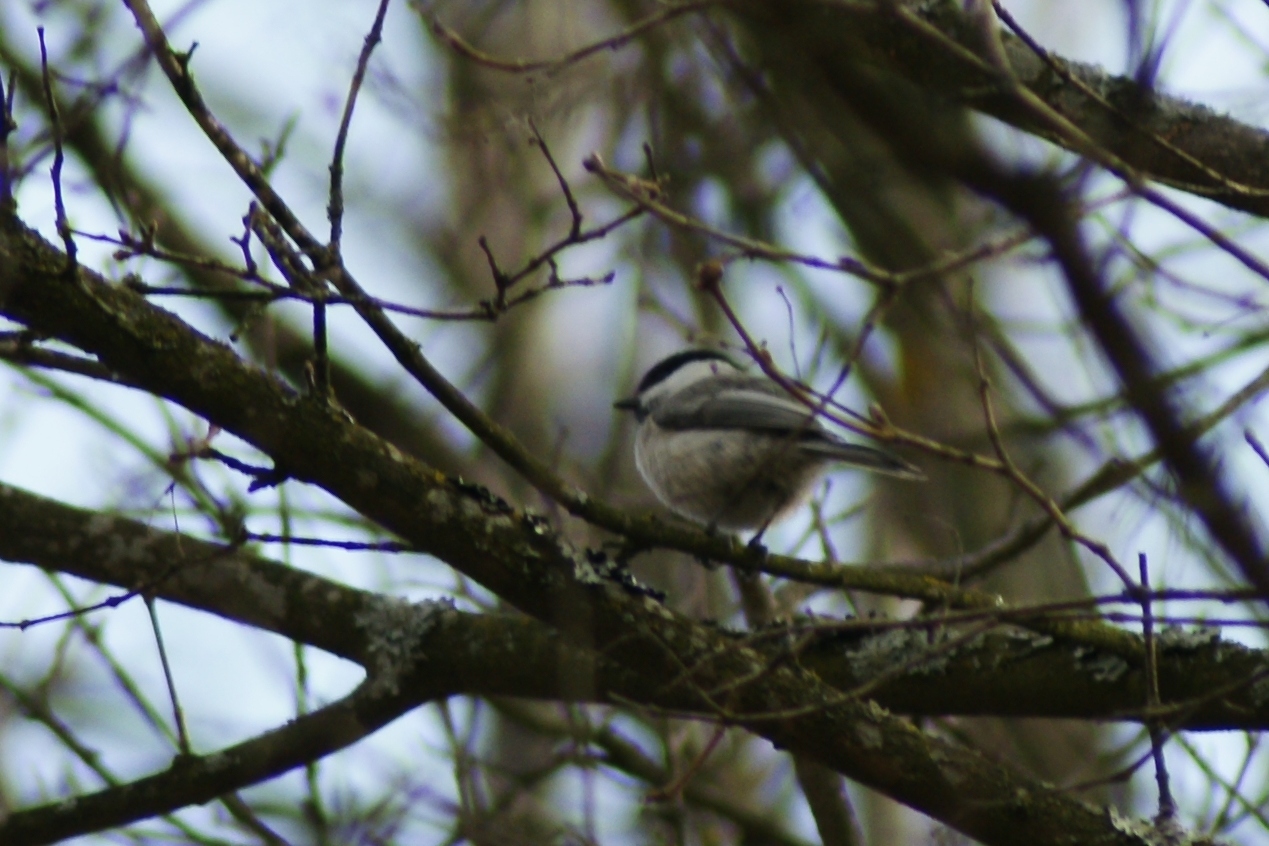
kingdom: Animalia
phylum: Chordata
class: Aves
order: Passeriformes
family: Paridae
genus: Poecile
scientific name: Poecile montanus
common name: Willow tit
